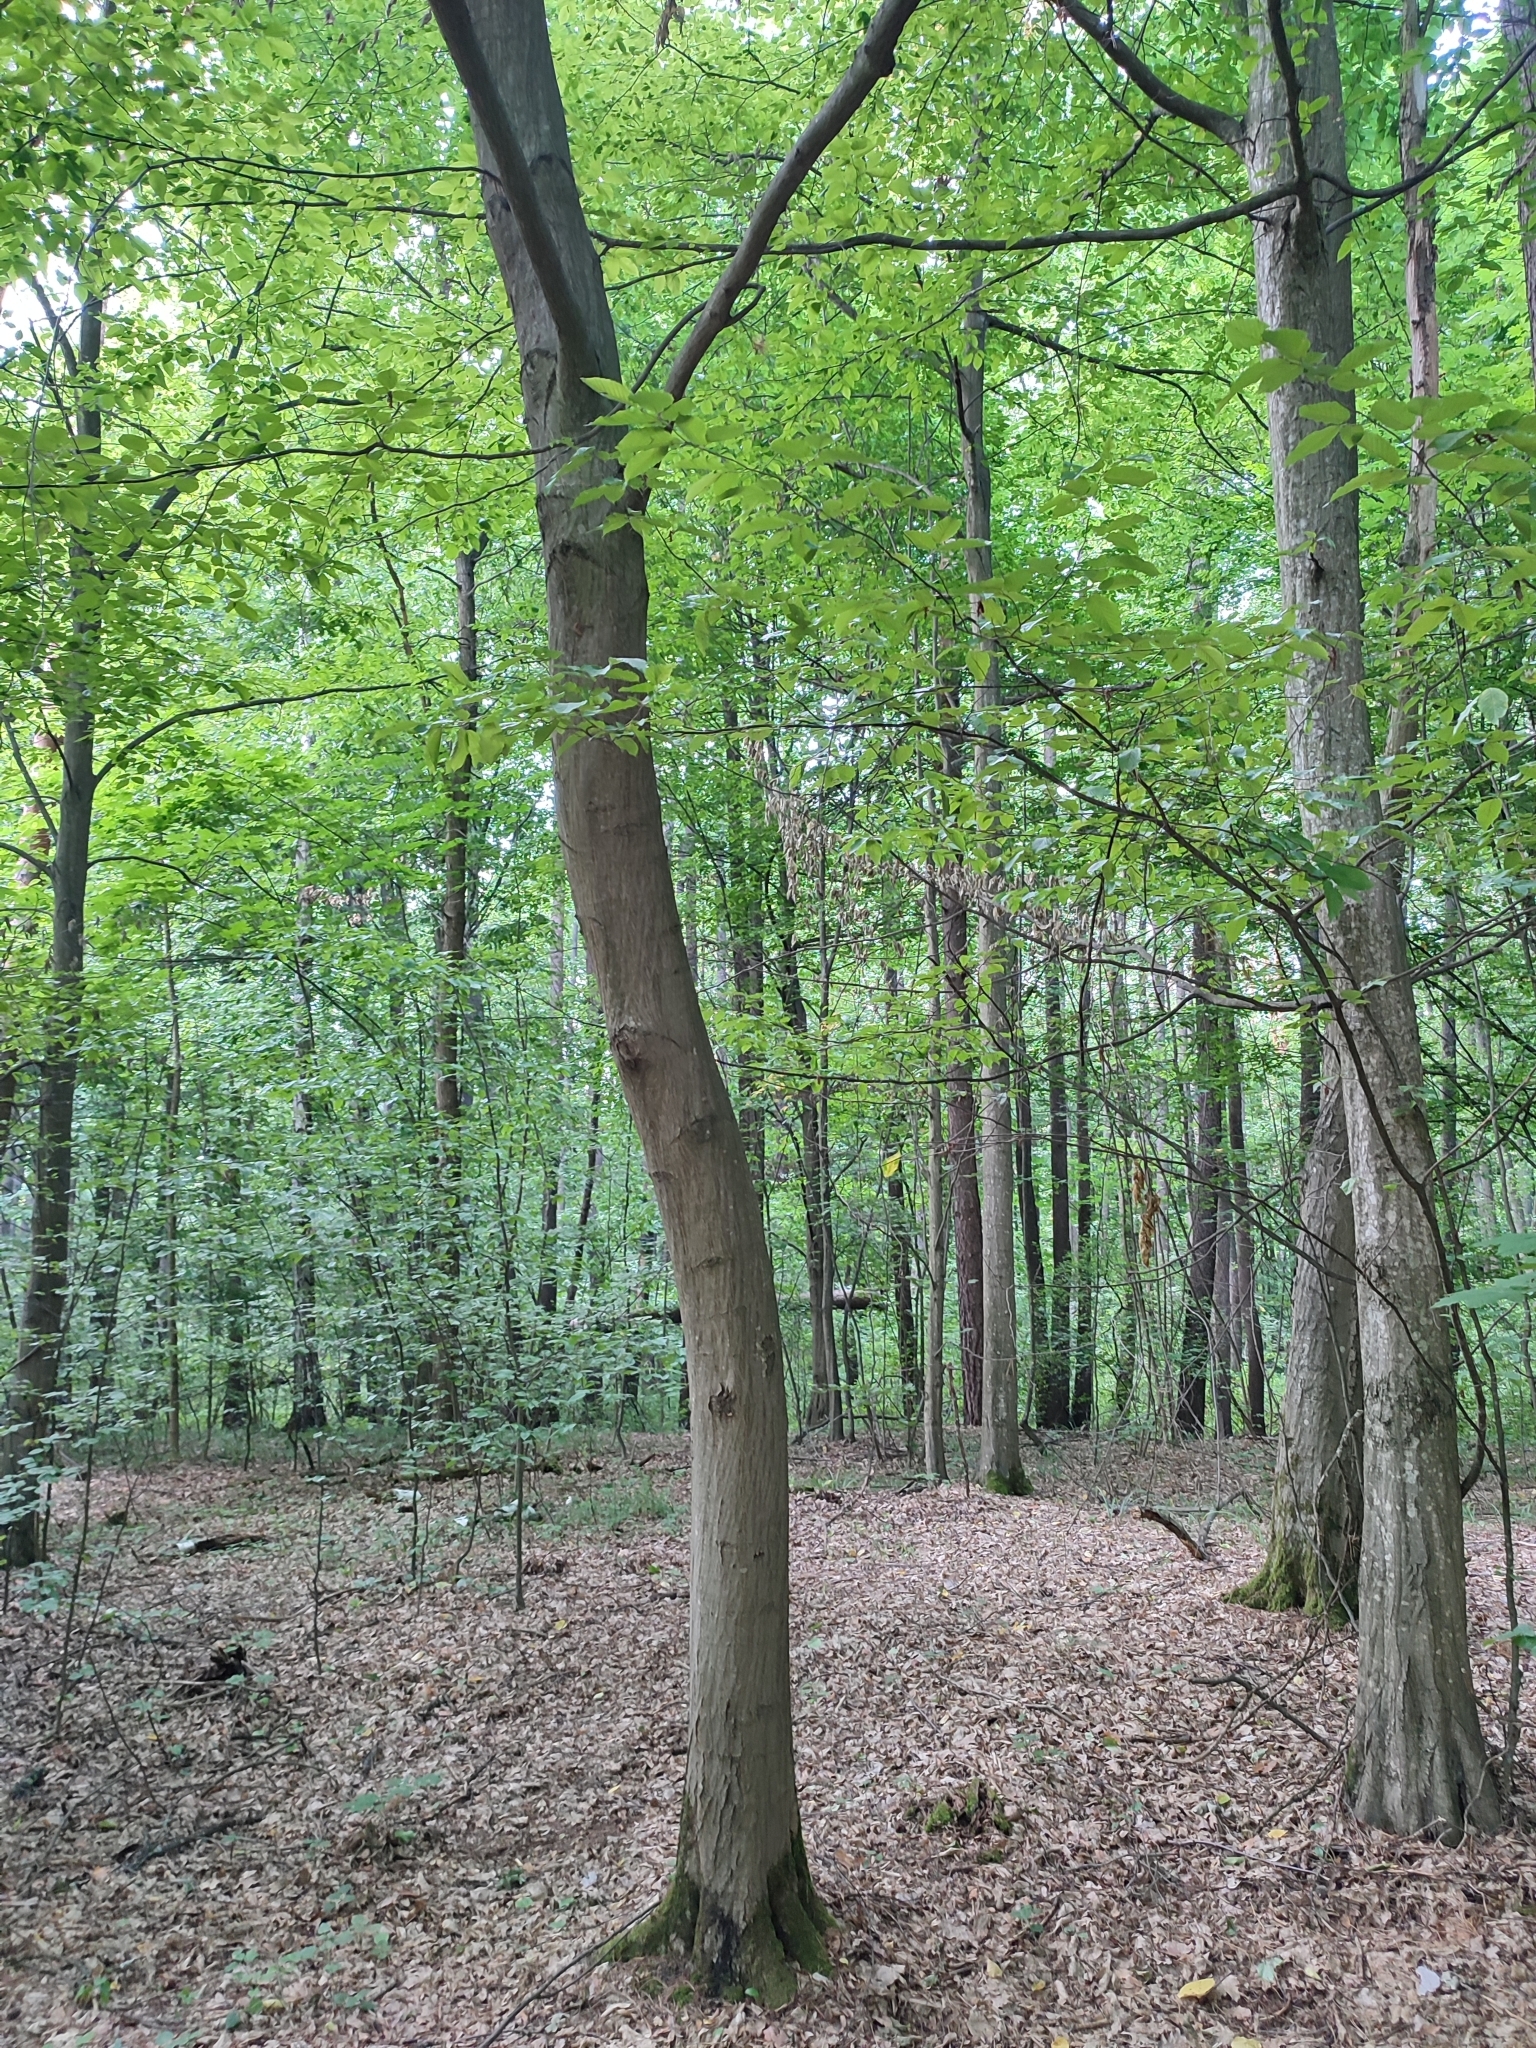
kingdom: Plantae
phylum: Tracheophyta
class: Magnoliopsida
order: Fagales
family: Betulaceae
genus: Carpinus
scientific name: Carpinus betulus
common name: Hornbeam
